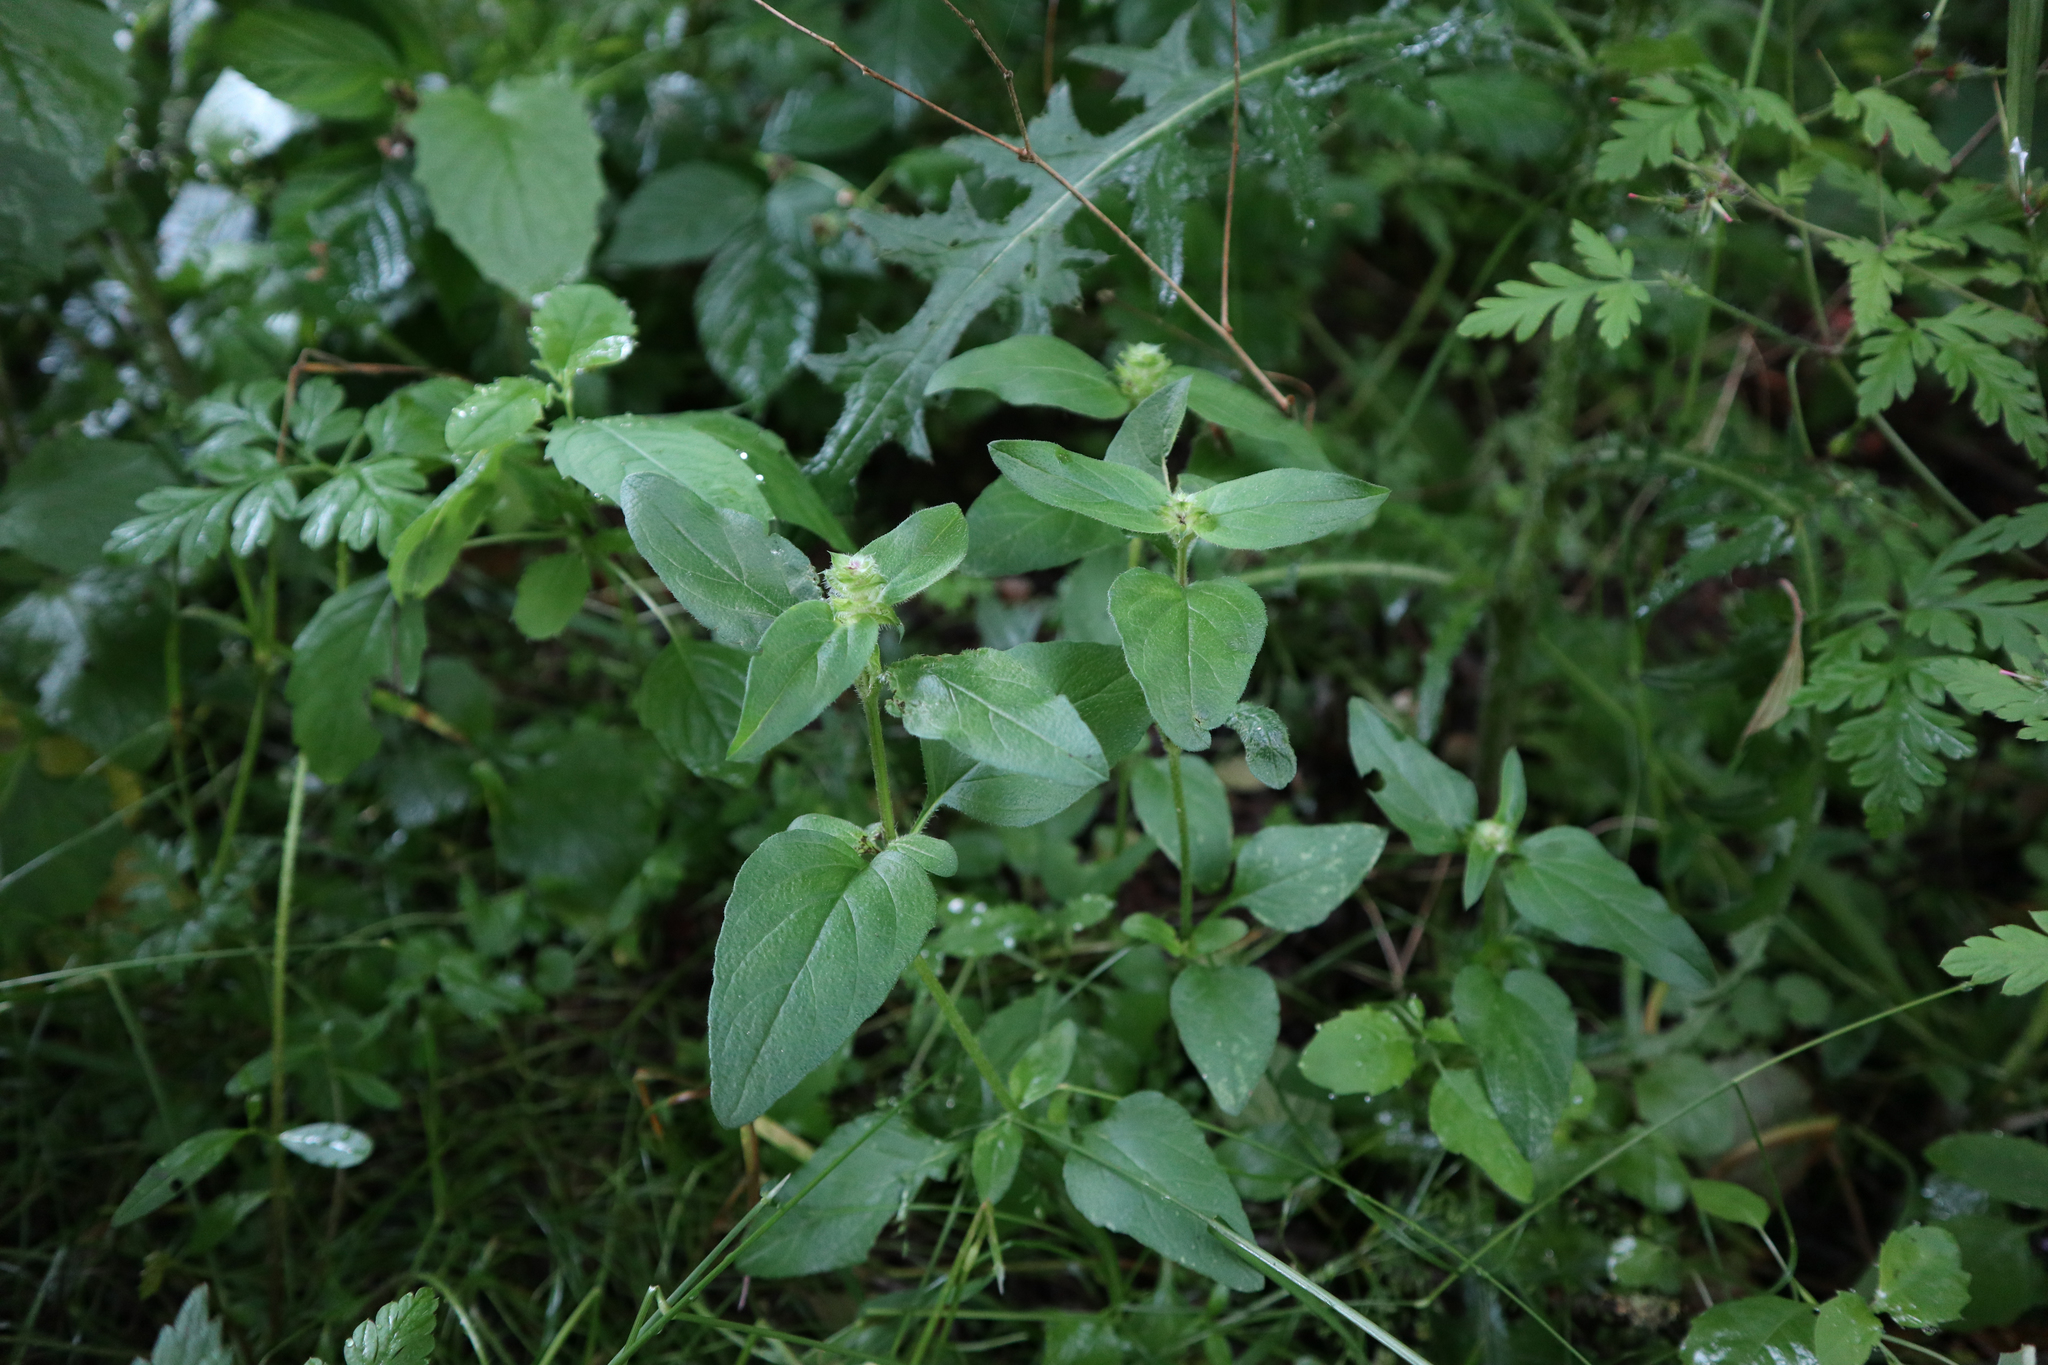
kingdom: Plantae
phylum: Tracheophyta
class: Magnoliopsida
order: Lamiales
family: Lamiaceae
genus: Prunella
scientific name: Prunella vulgaris
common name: Heal-all
